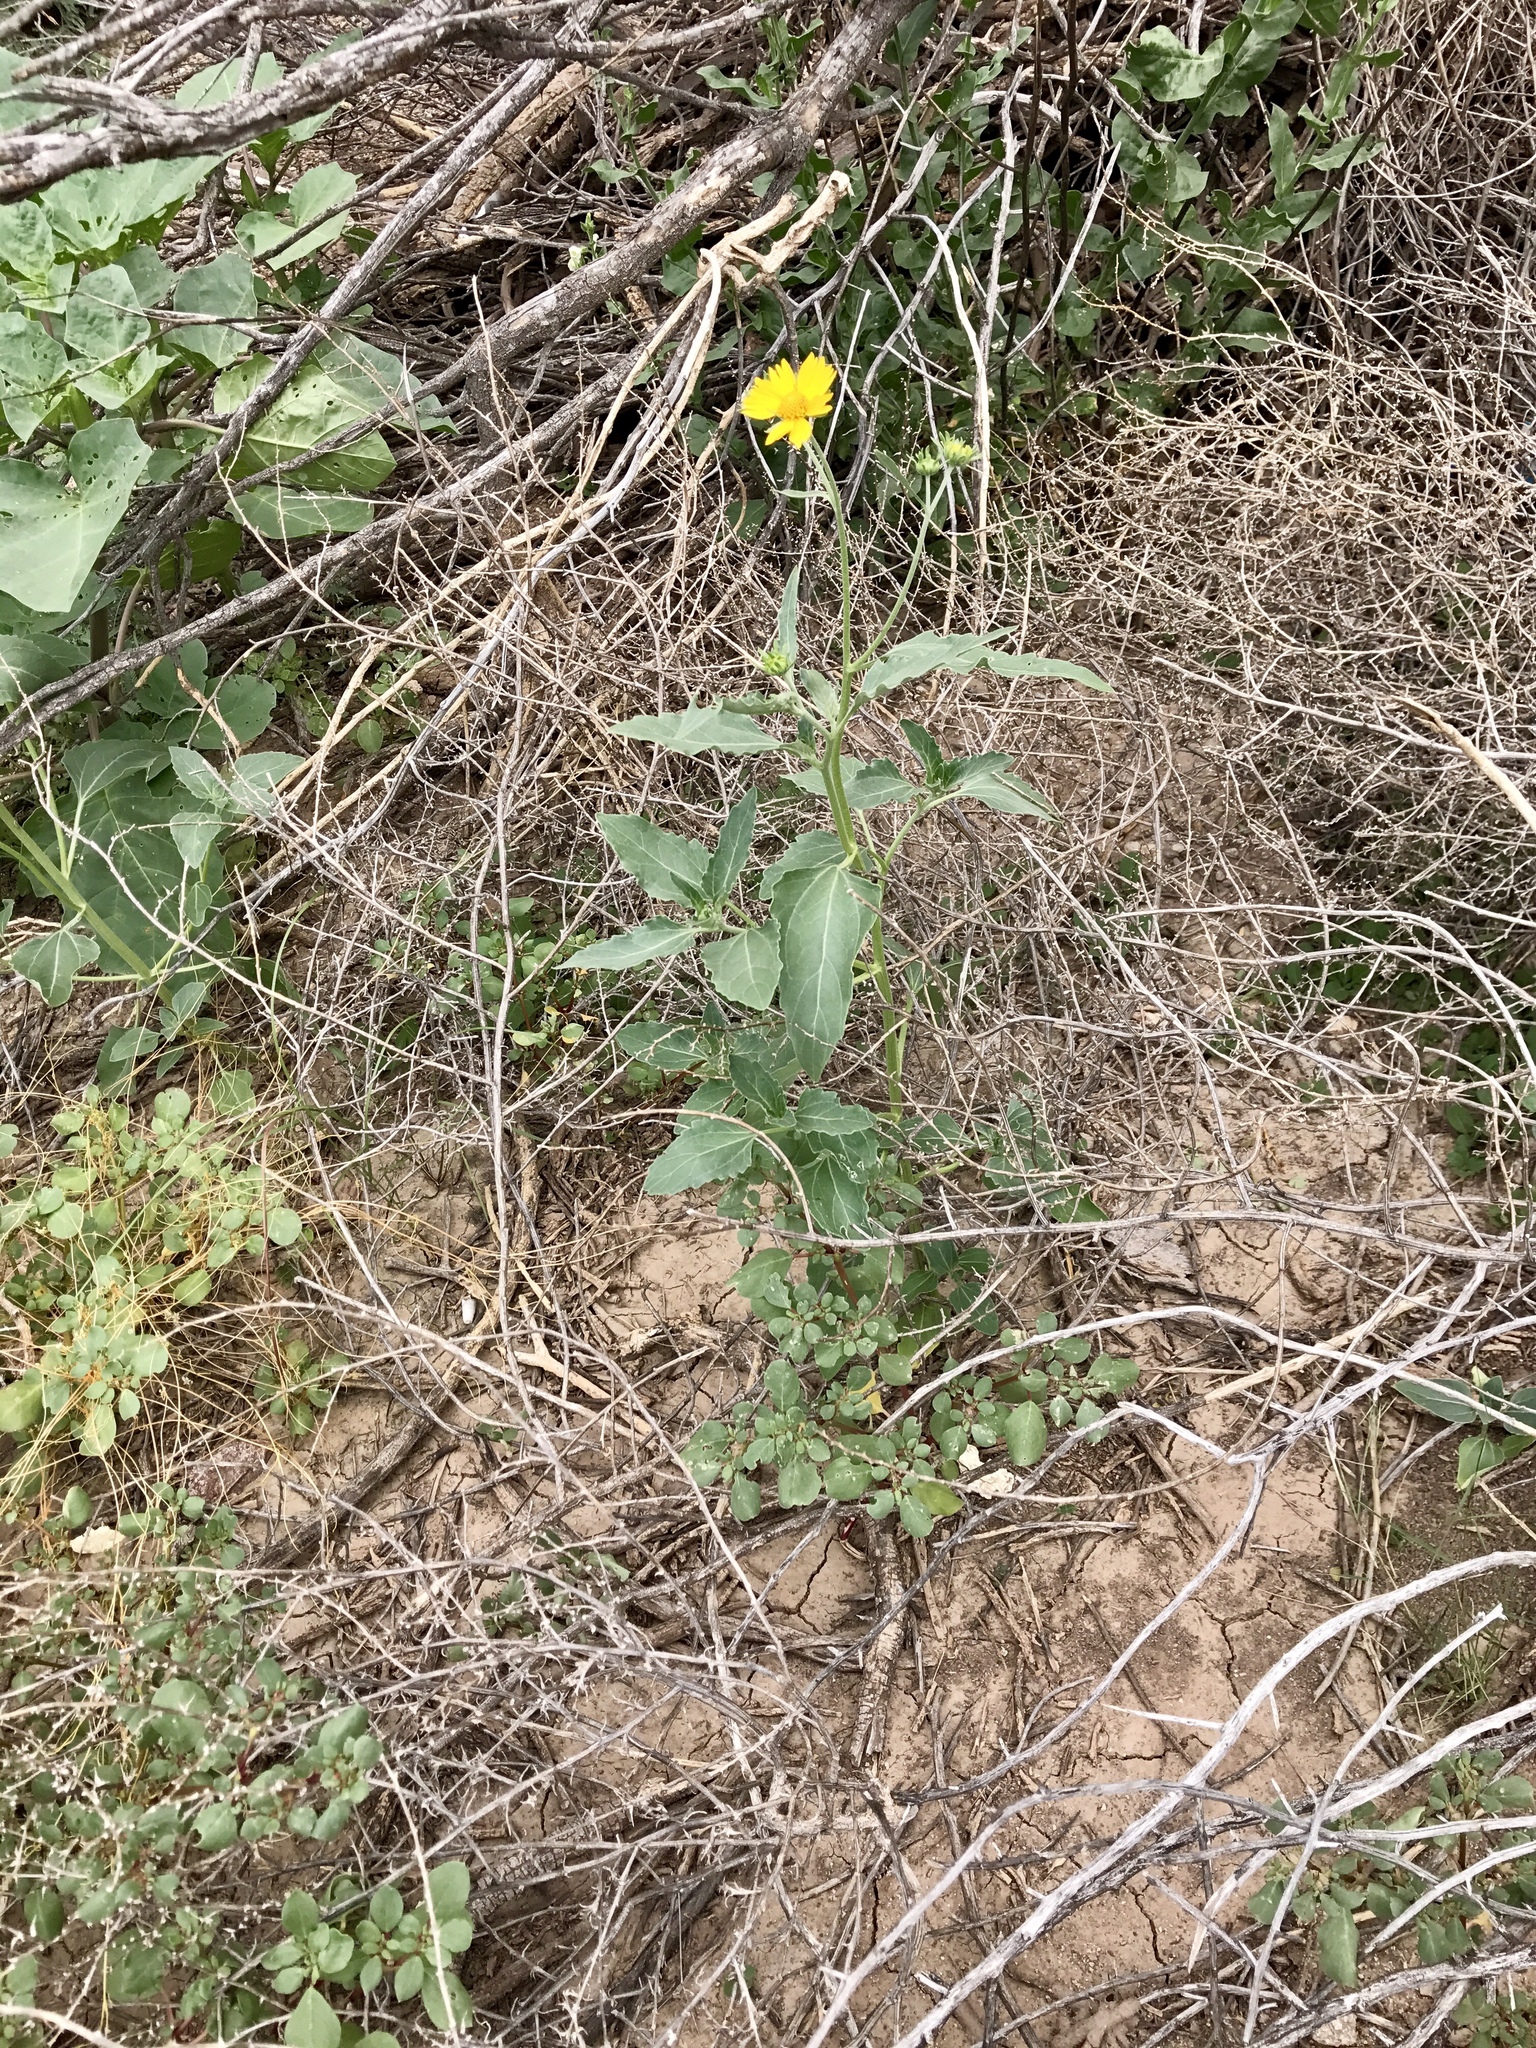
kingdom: Plantae
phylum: Tracheophyta
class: Magnoliopsida
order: Asterales
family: Asteraceae
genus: Verbesina
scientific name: Verbesina encelioides
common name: Golden crownbeard
